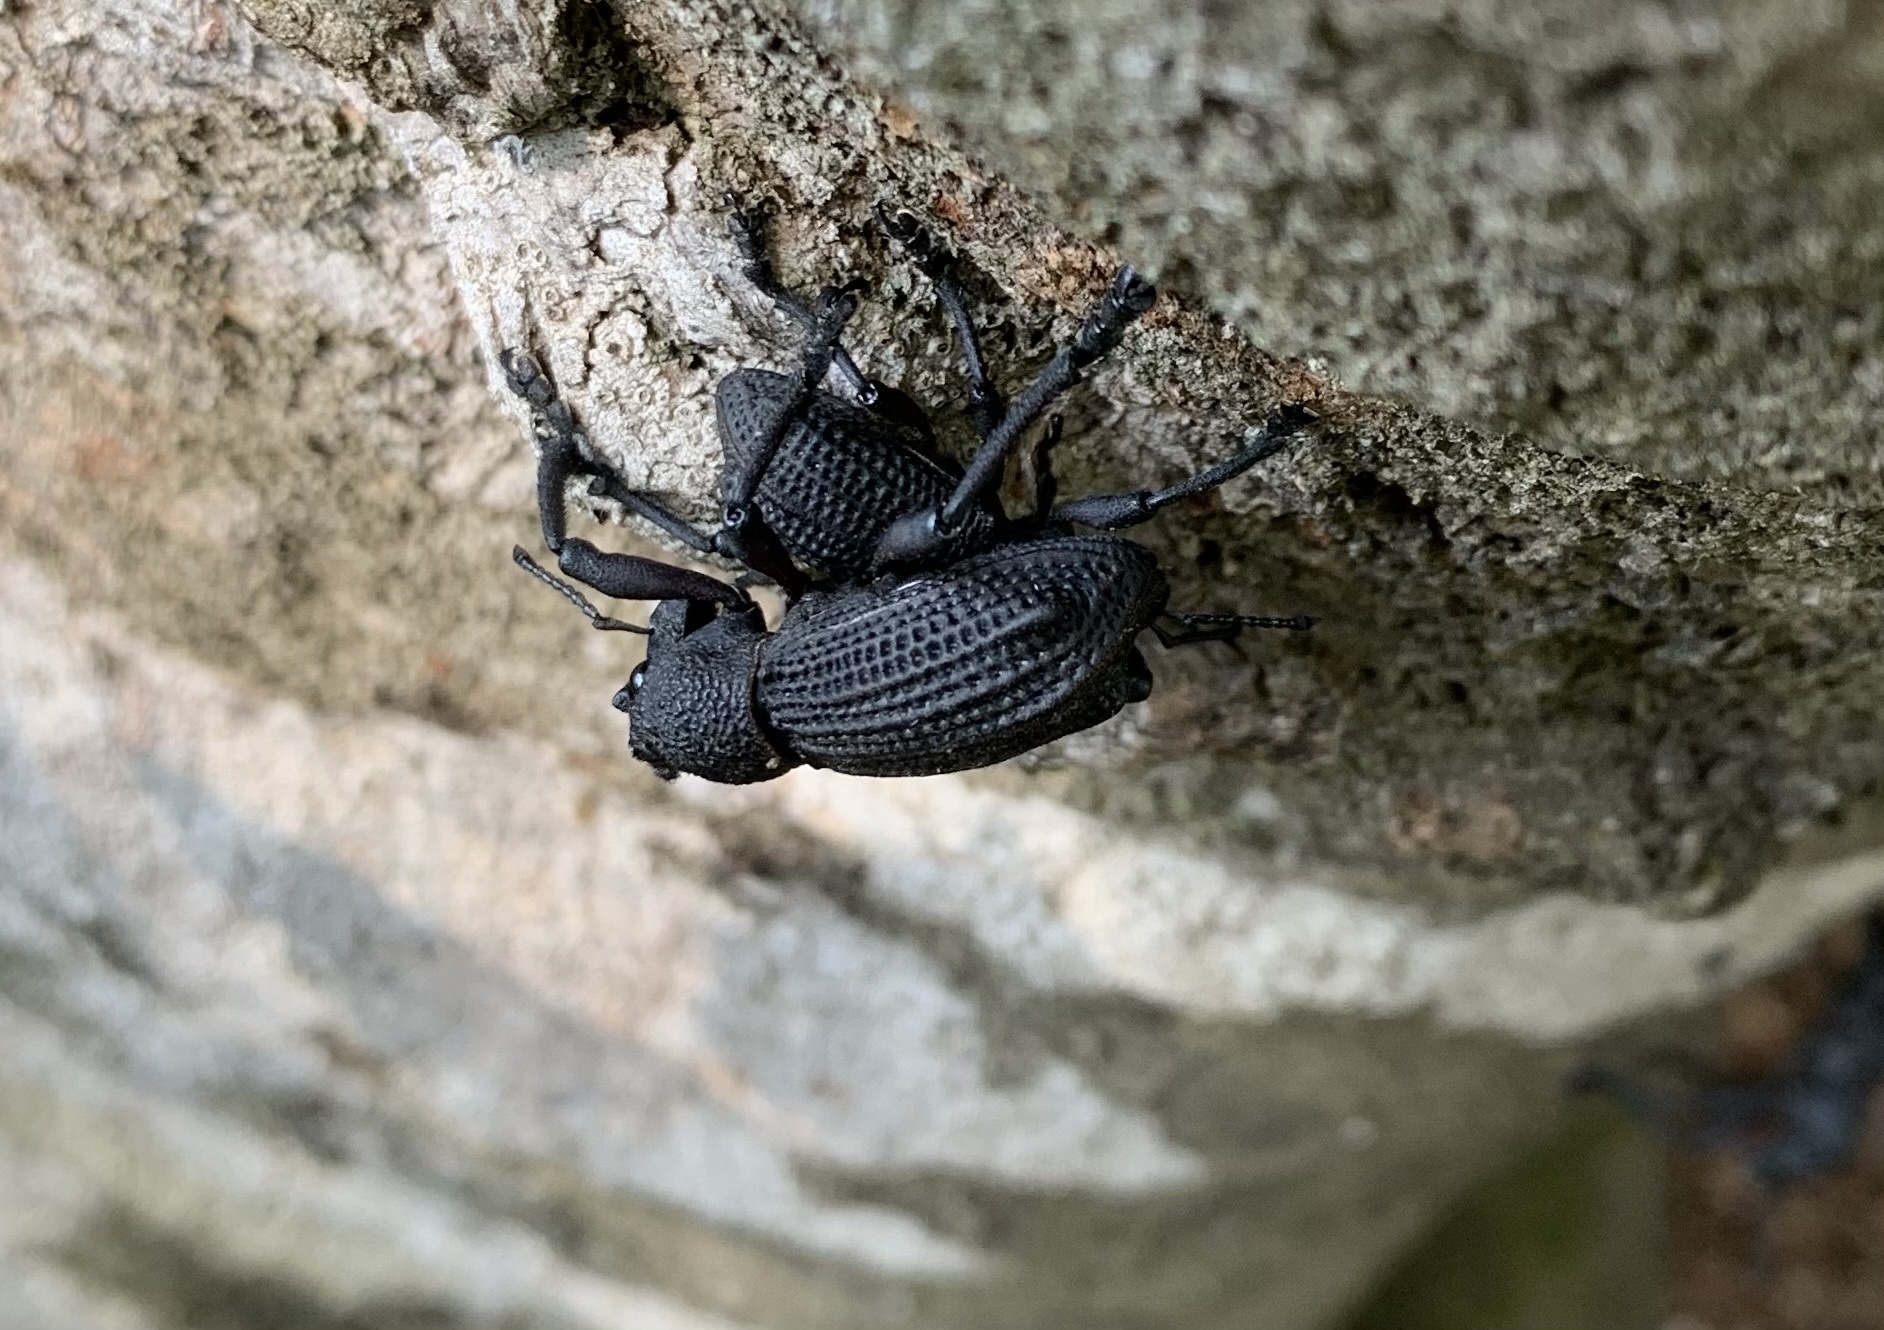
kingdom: Animalia
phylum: Arthropoda
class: Insecta
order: Coleoptera
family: Curculionidae
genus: Aegorhinus
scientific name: Aegorhinus
